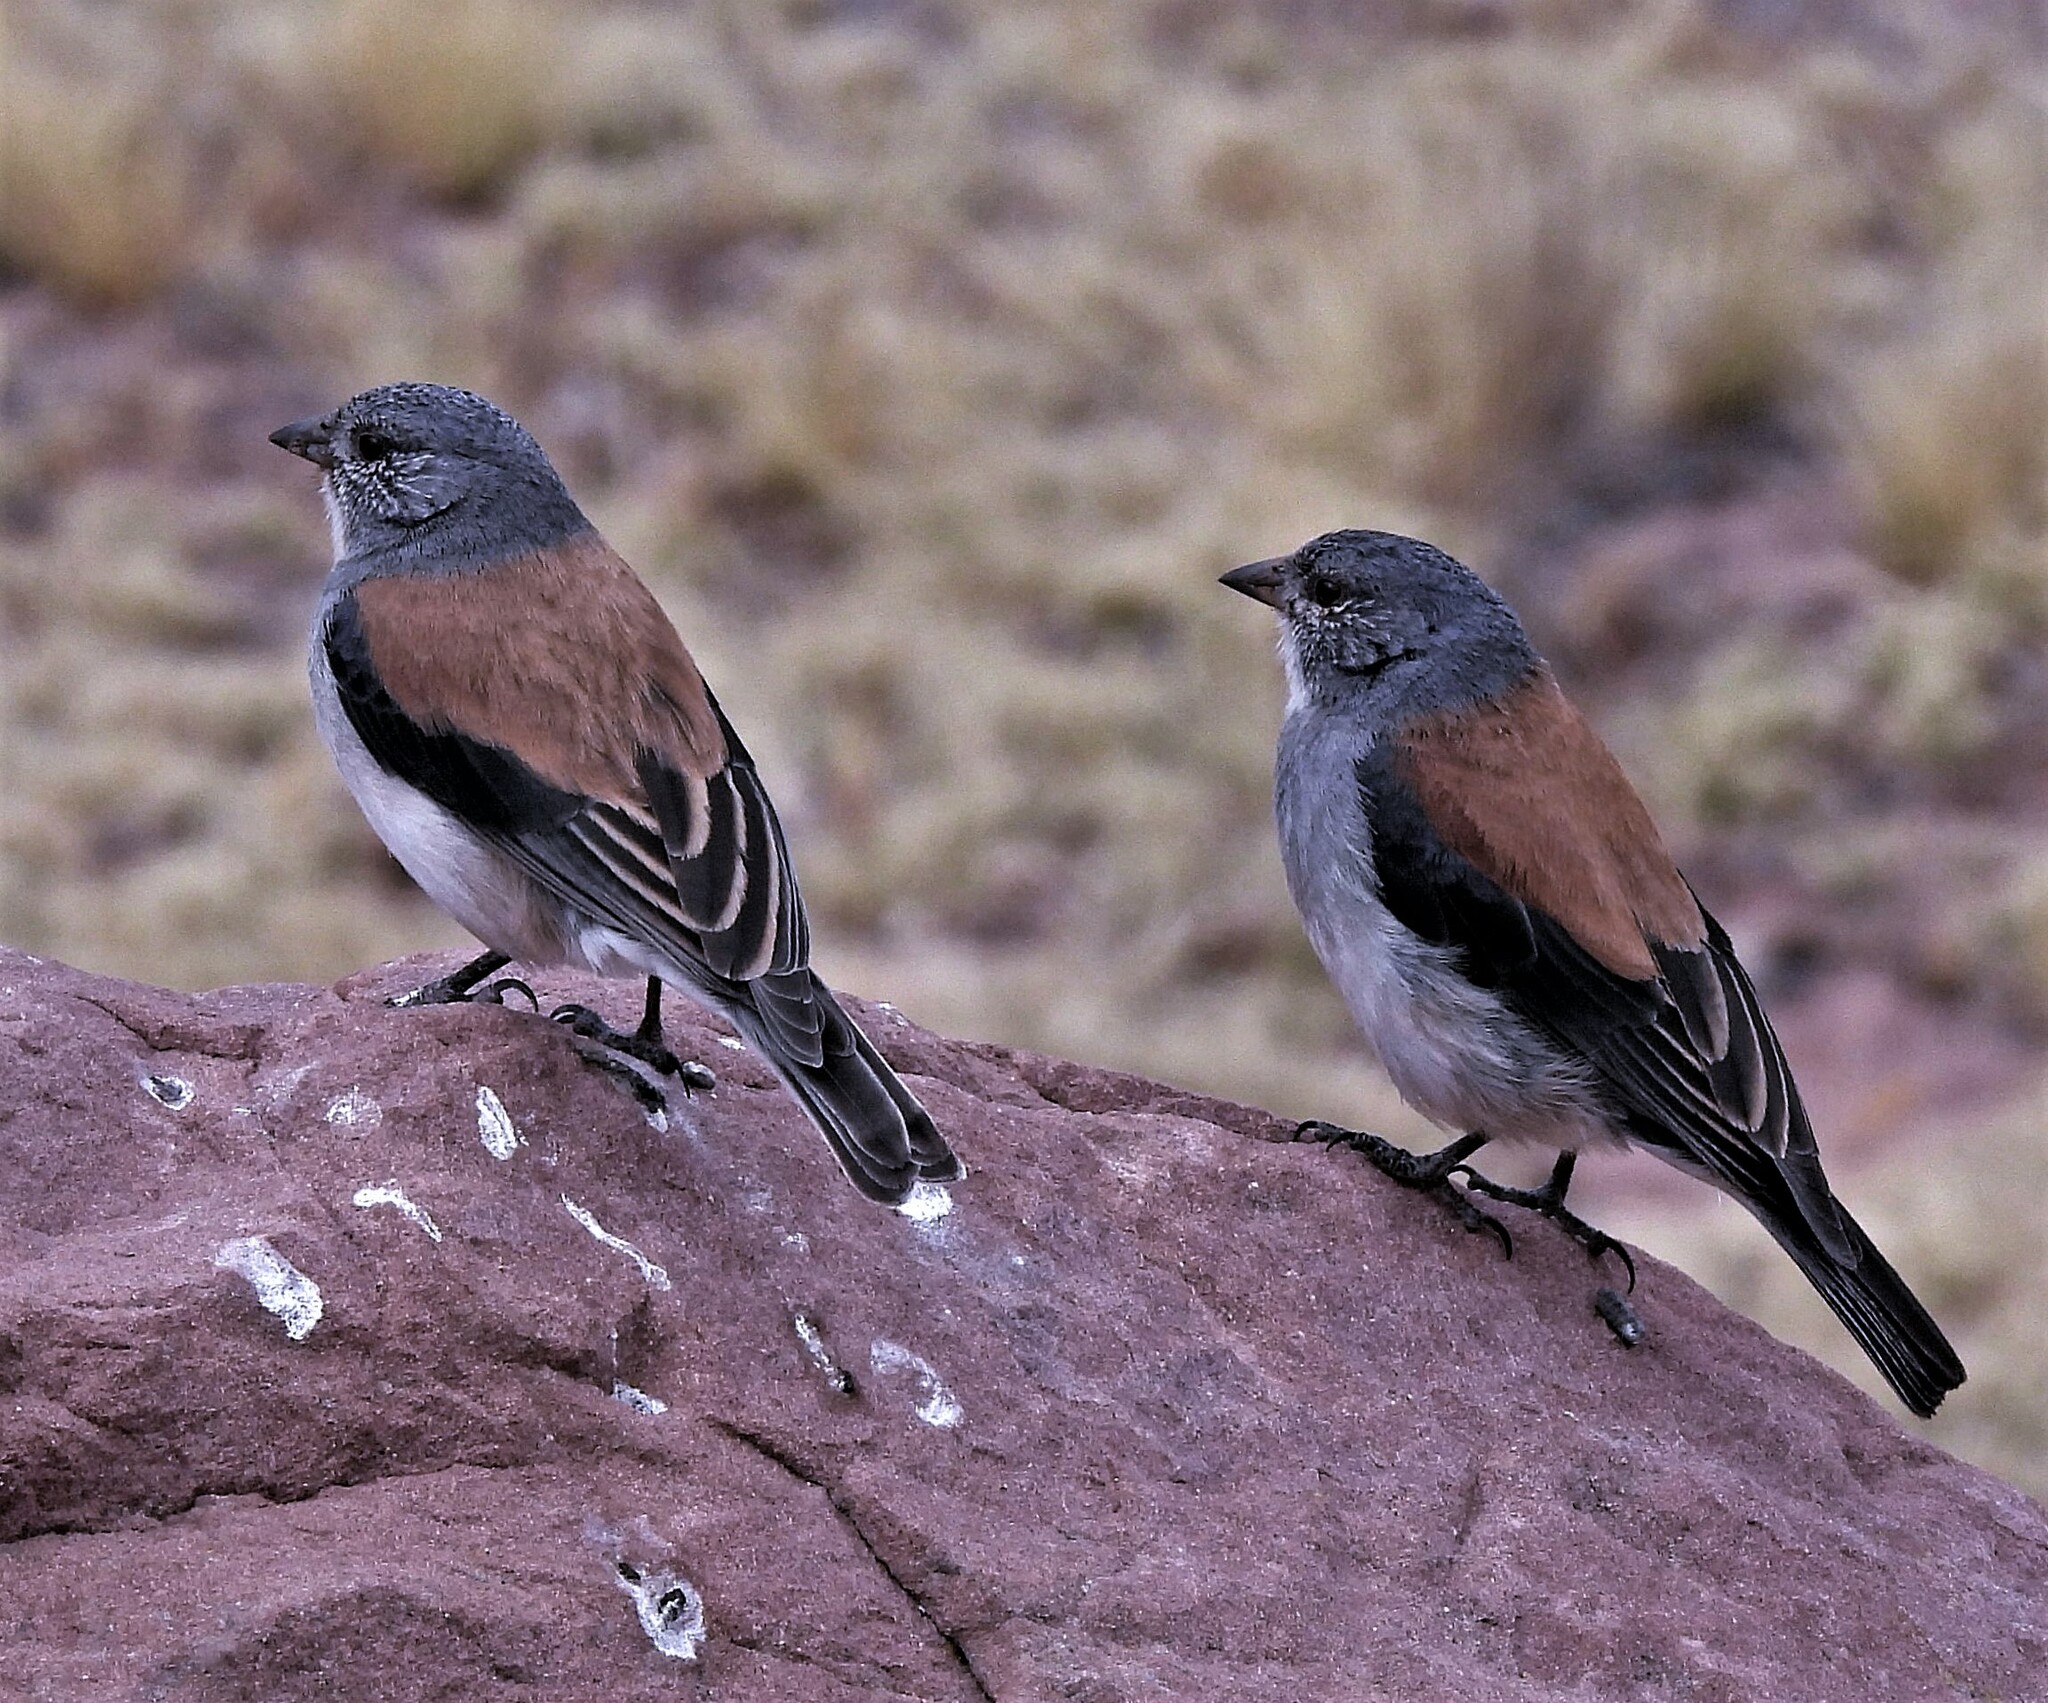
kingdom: Animalia
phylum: Chordata
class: Aves
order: Passeriformes
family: Thraupidae
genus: Idiopsar
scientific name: Idiopsar dorsalis
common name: Red-backed sierra finch
